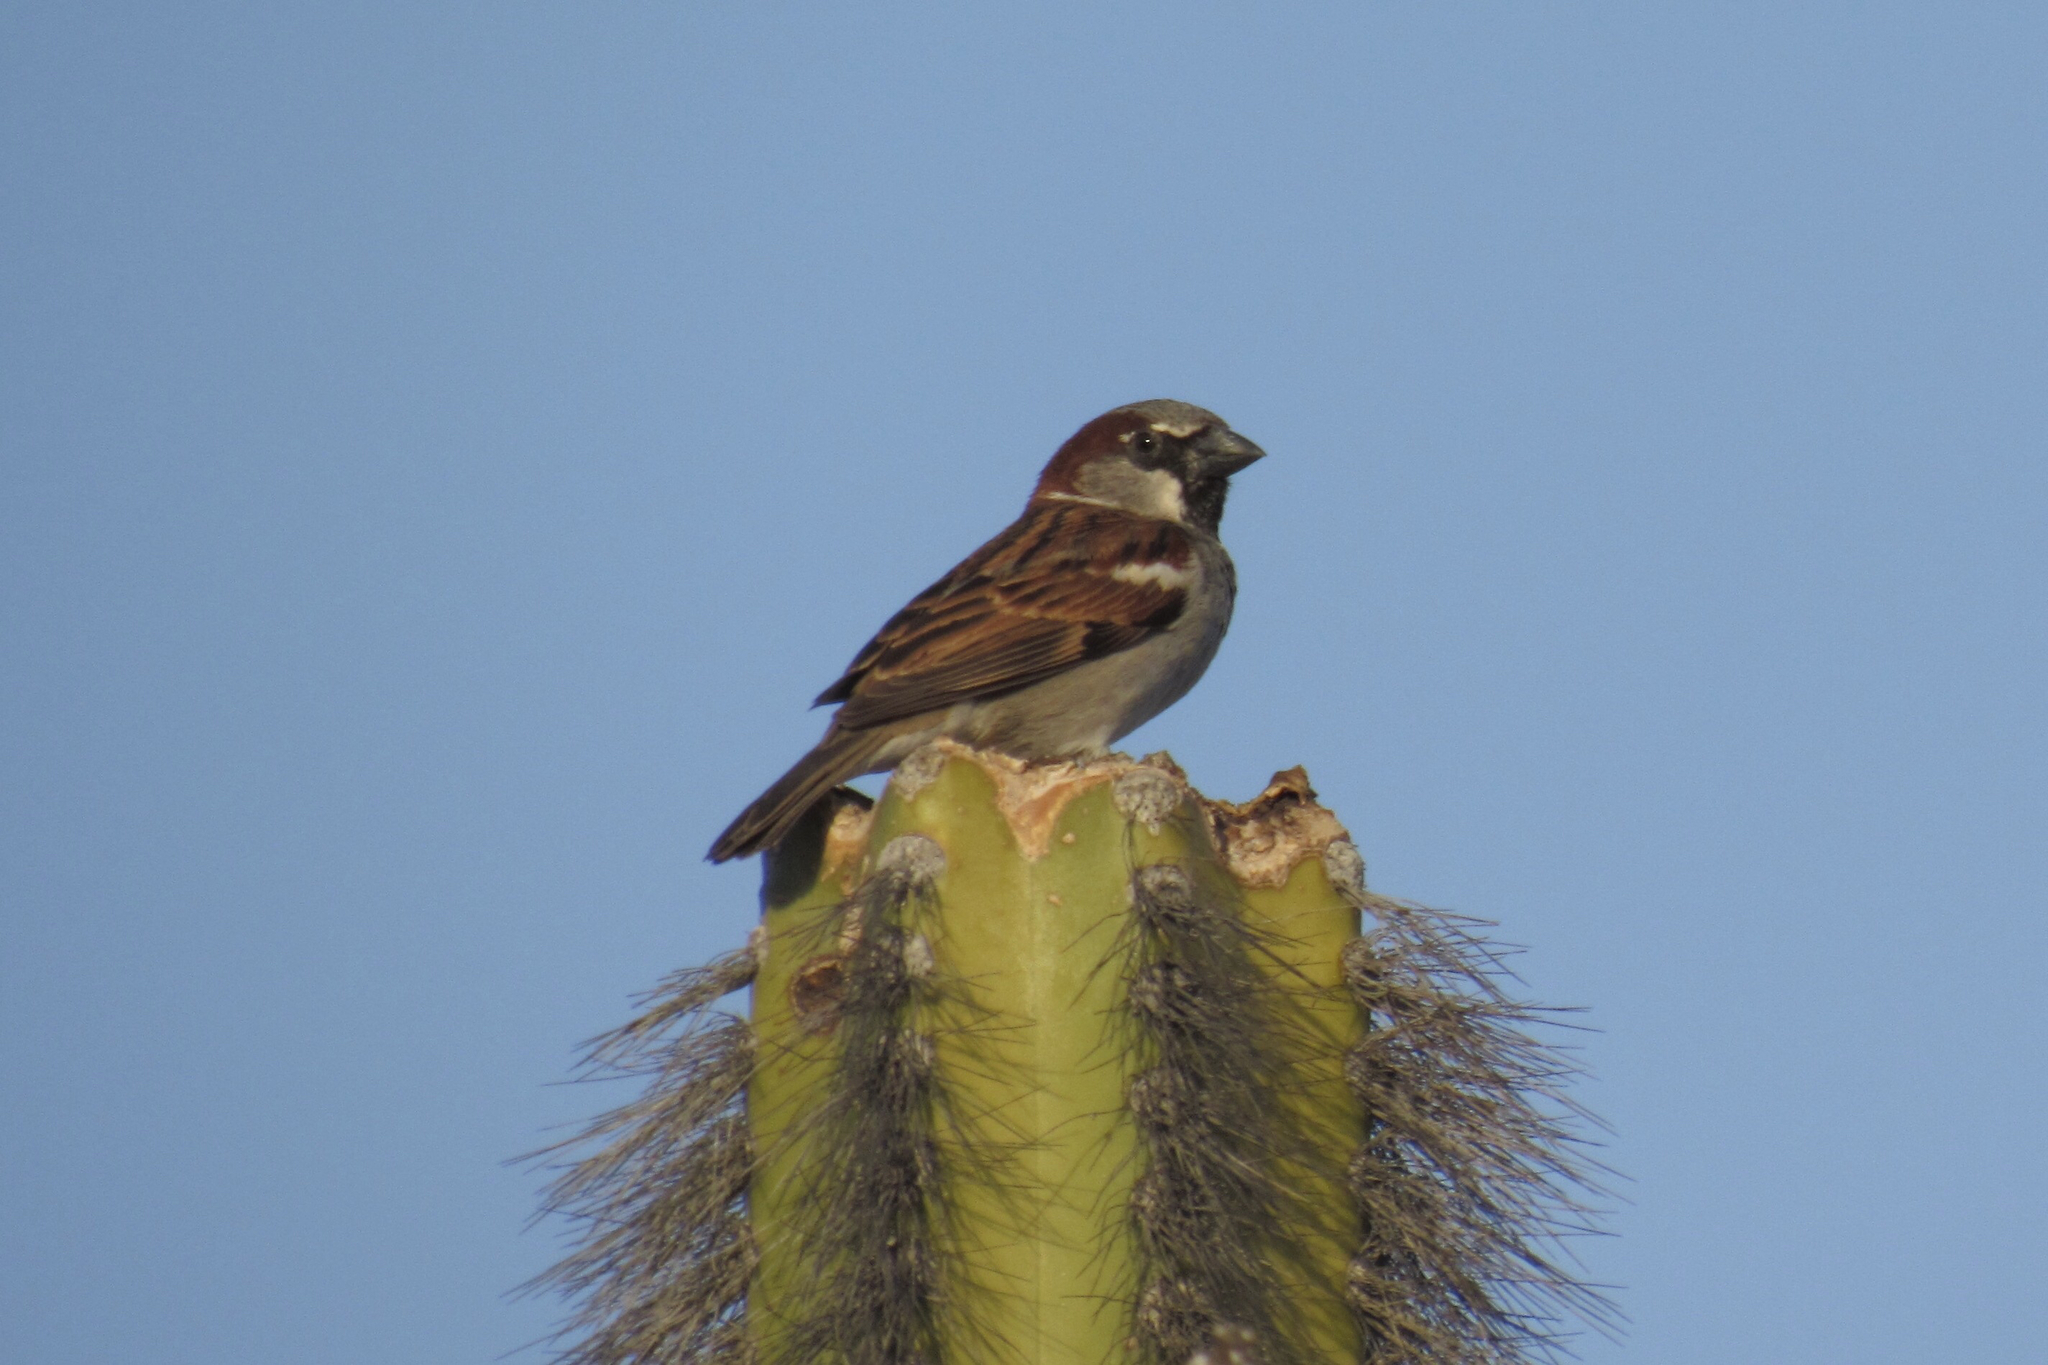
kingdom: Animalia
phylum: Chordata
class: Aves
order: Passeriformes
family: Passeridae
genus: Passer
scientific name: Passer domesticus
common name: House sparrow
